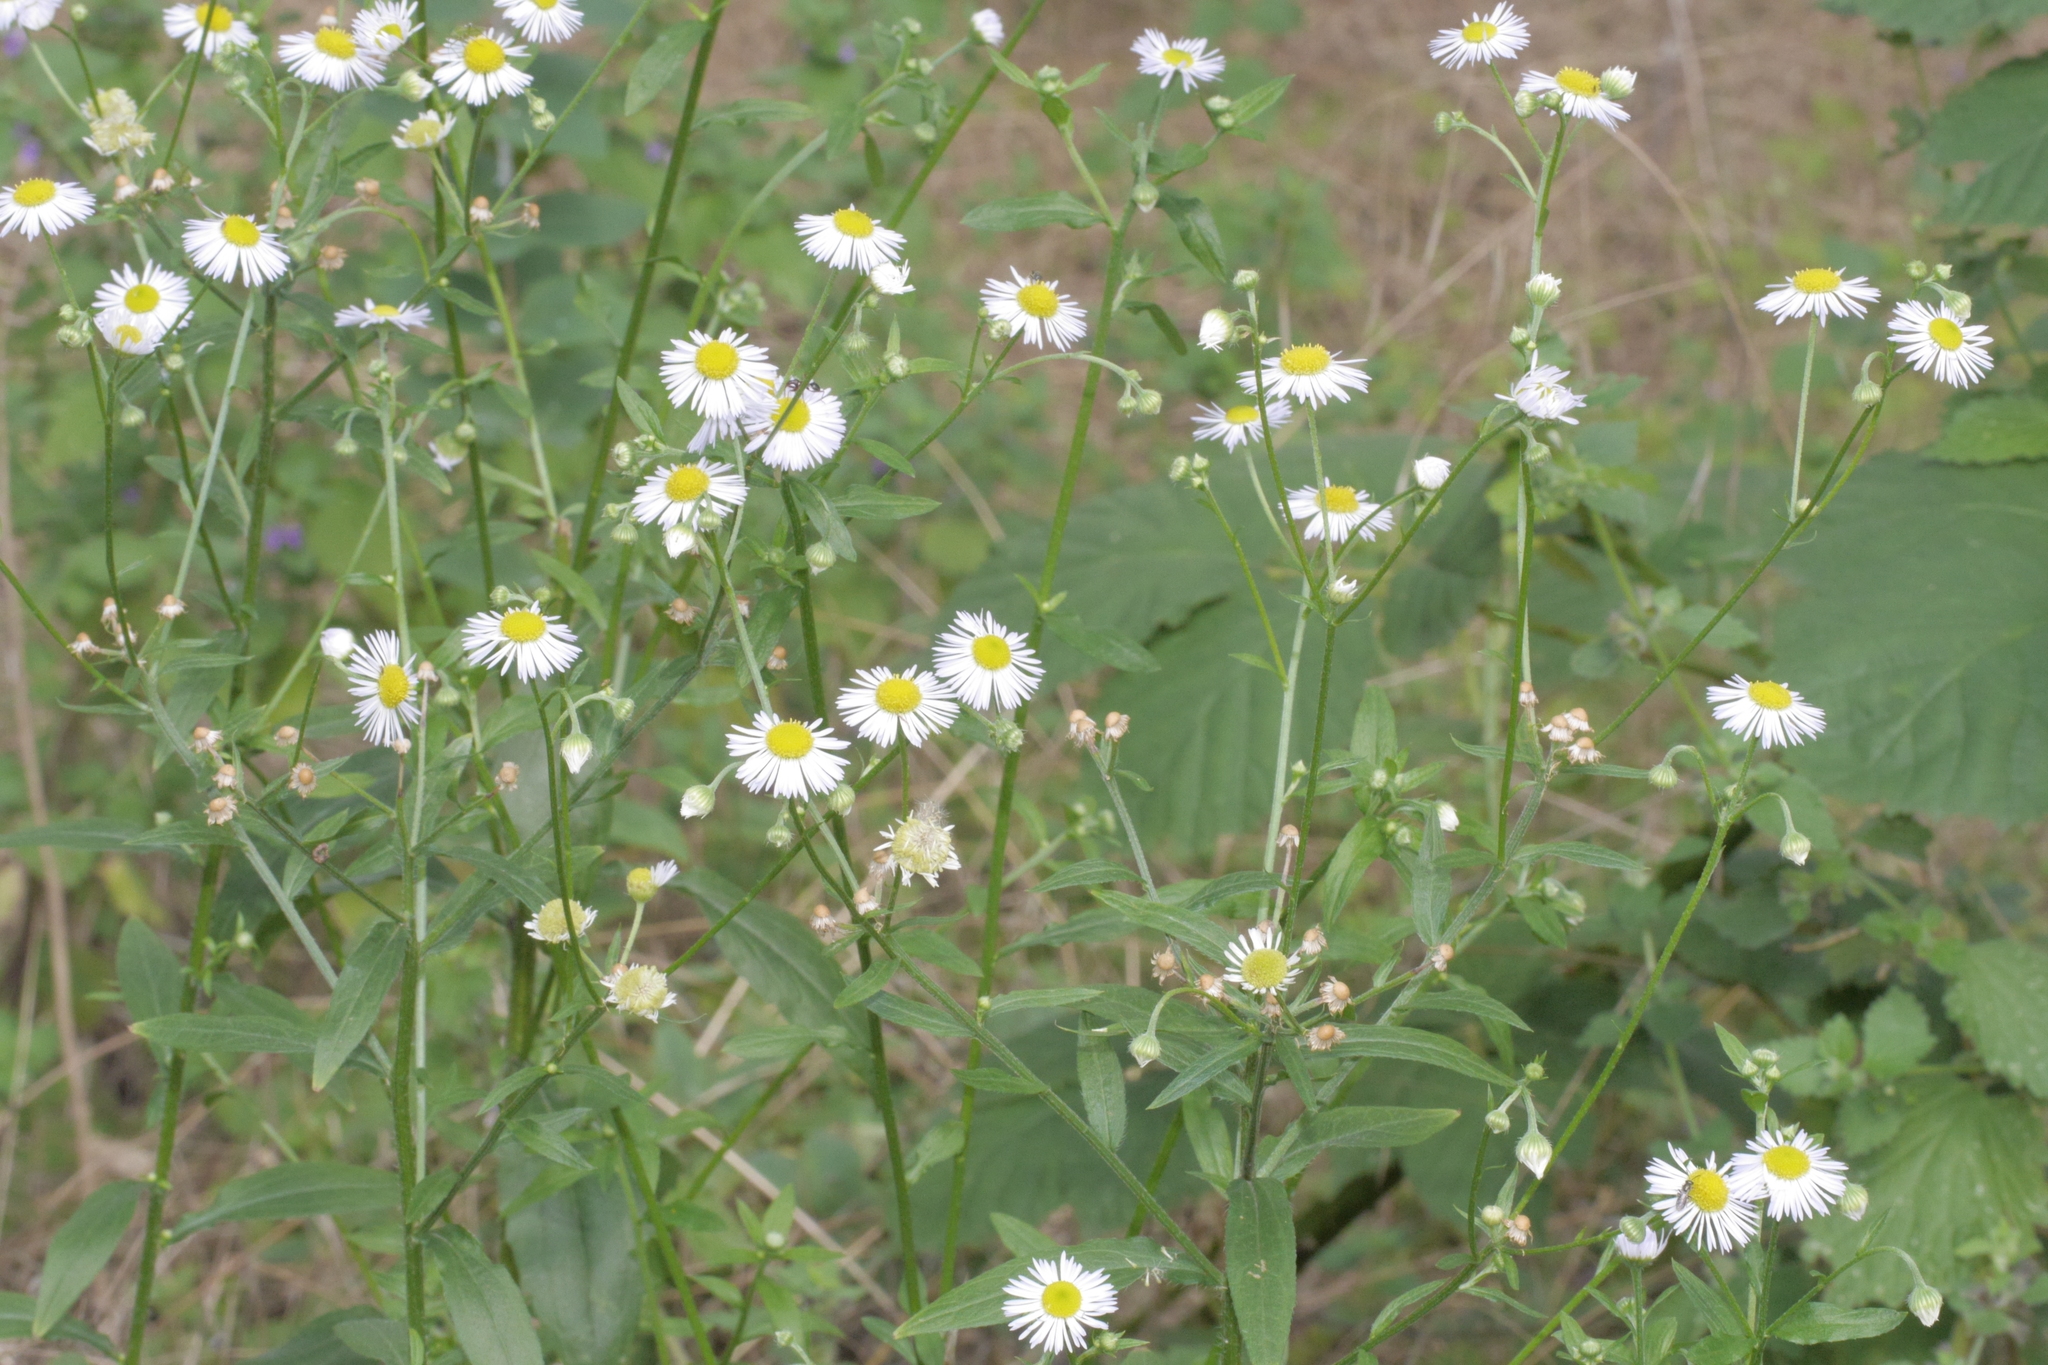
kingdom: Plantae
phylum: Tracheophyta
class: Magnoliopsida
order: Asterales
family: Asteraceae
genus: Erigeron
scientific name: Erigeron annuus
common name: Tall fleabane
